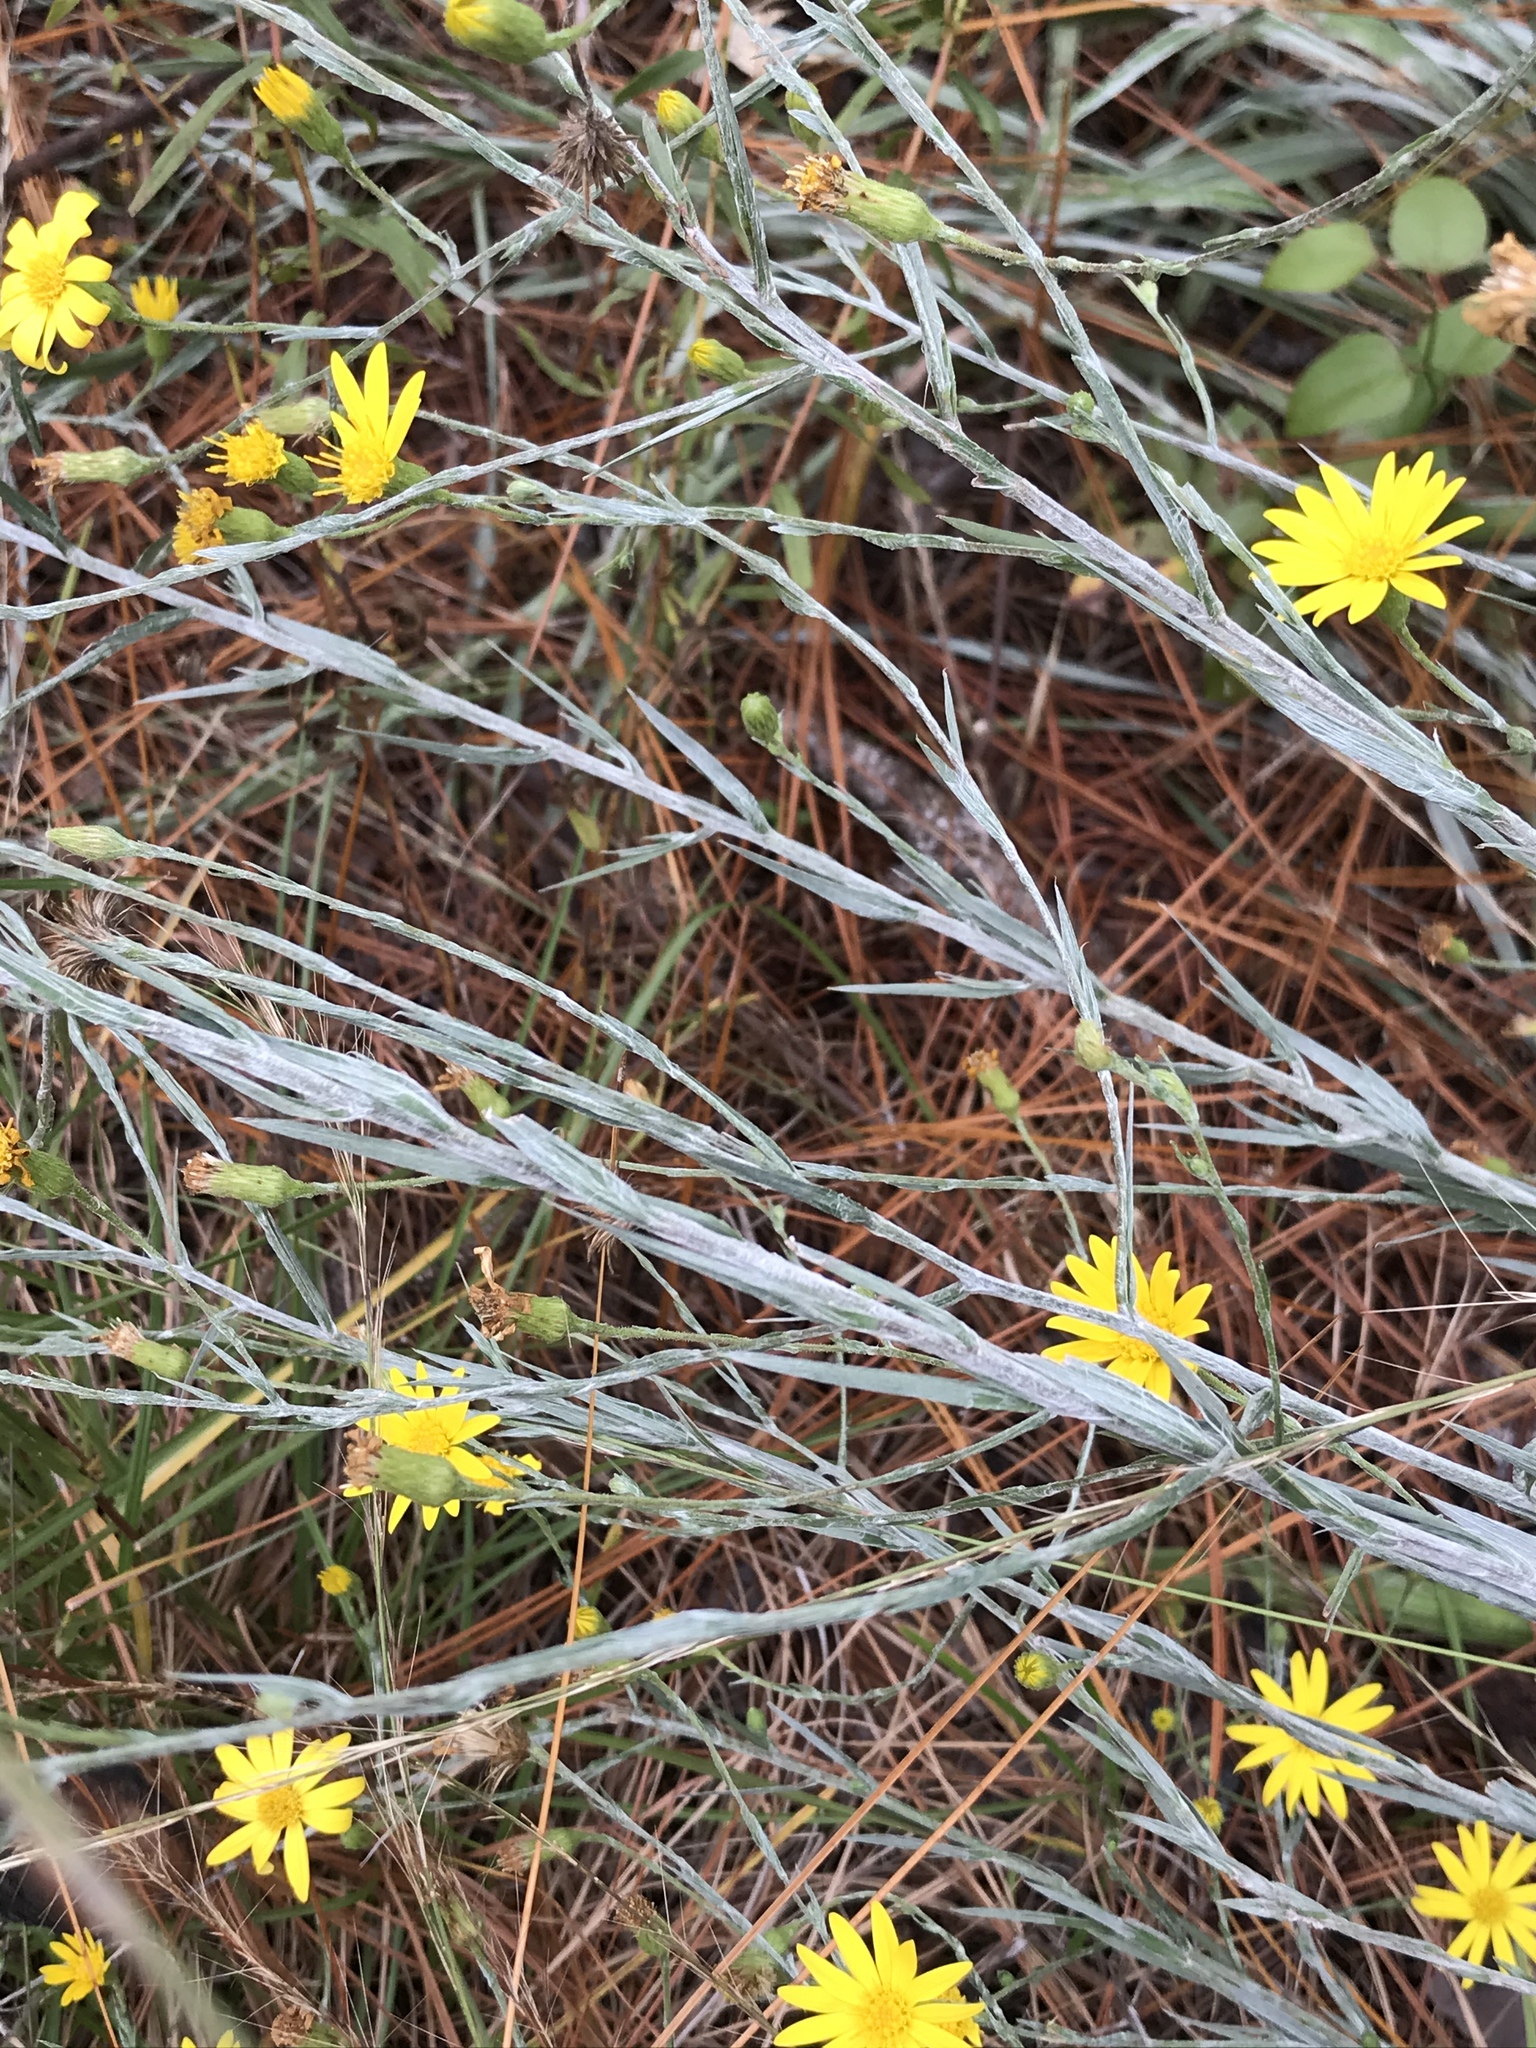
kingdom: Plantae
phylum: Tracheophyta
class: Magnoliopsida
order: Asterales
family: Asteraceae
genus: Pityopsis
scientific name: Pityopsis graminifolia
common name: Grass-leaf golden-aster
